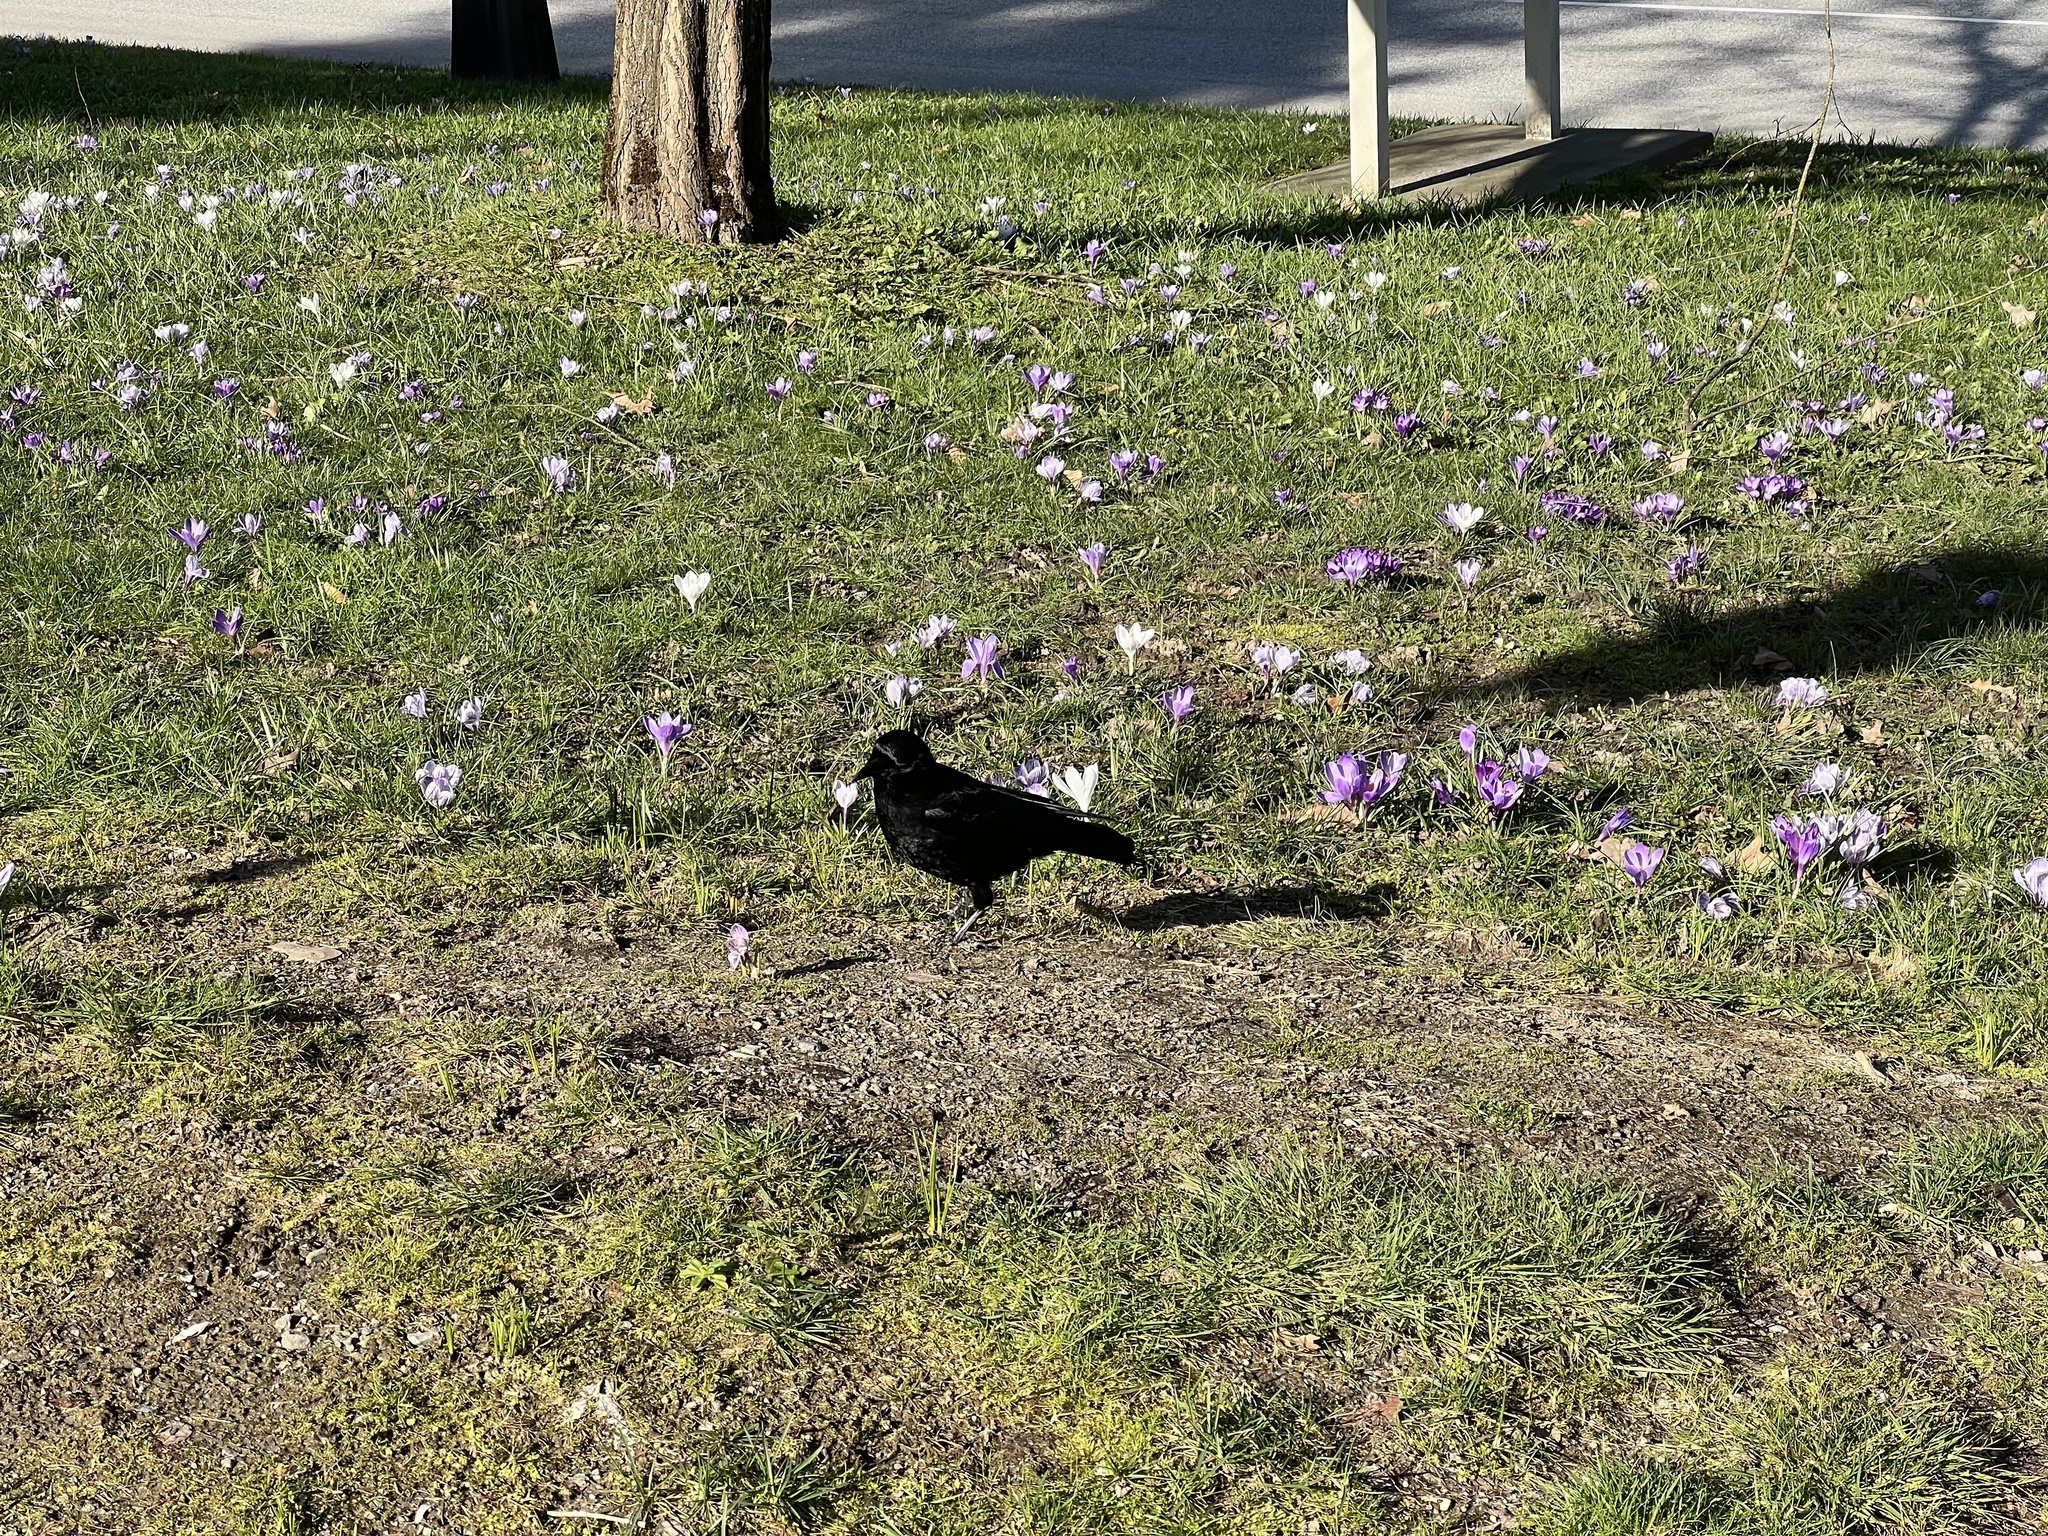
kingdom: Animalia
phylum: Chordata
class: Aves
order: Passeriformes
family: Corvidae
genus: Corvus
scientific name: Corvus brachyrhynchos
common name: American crow
